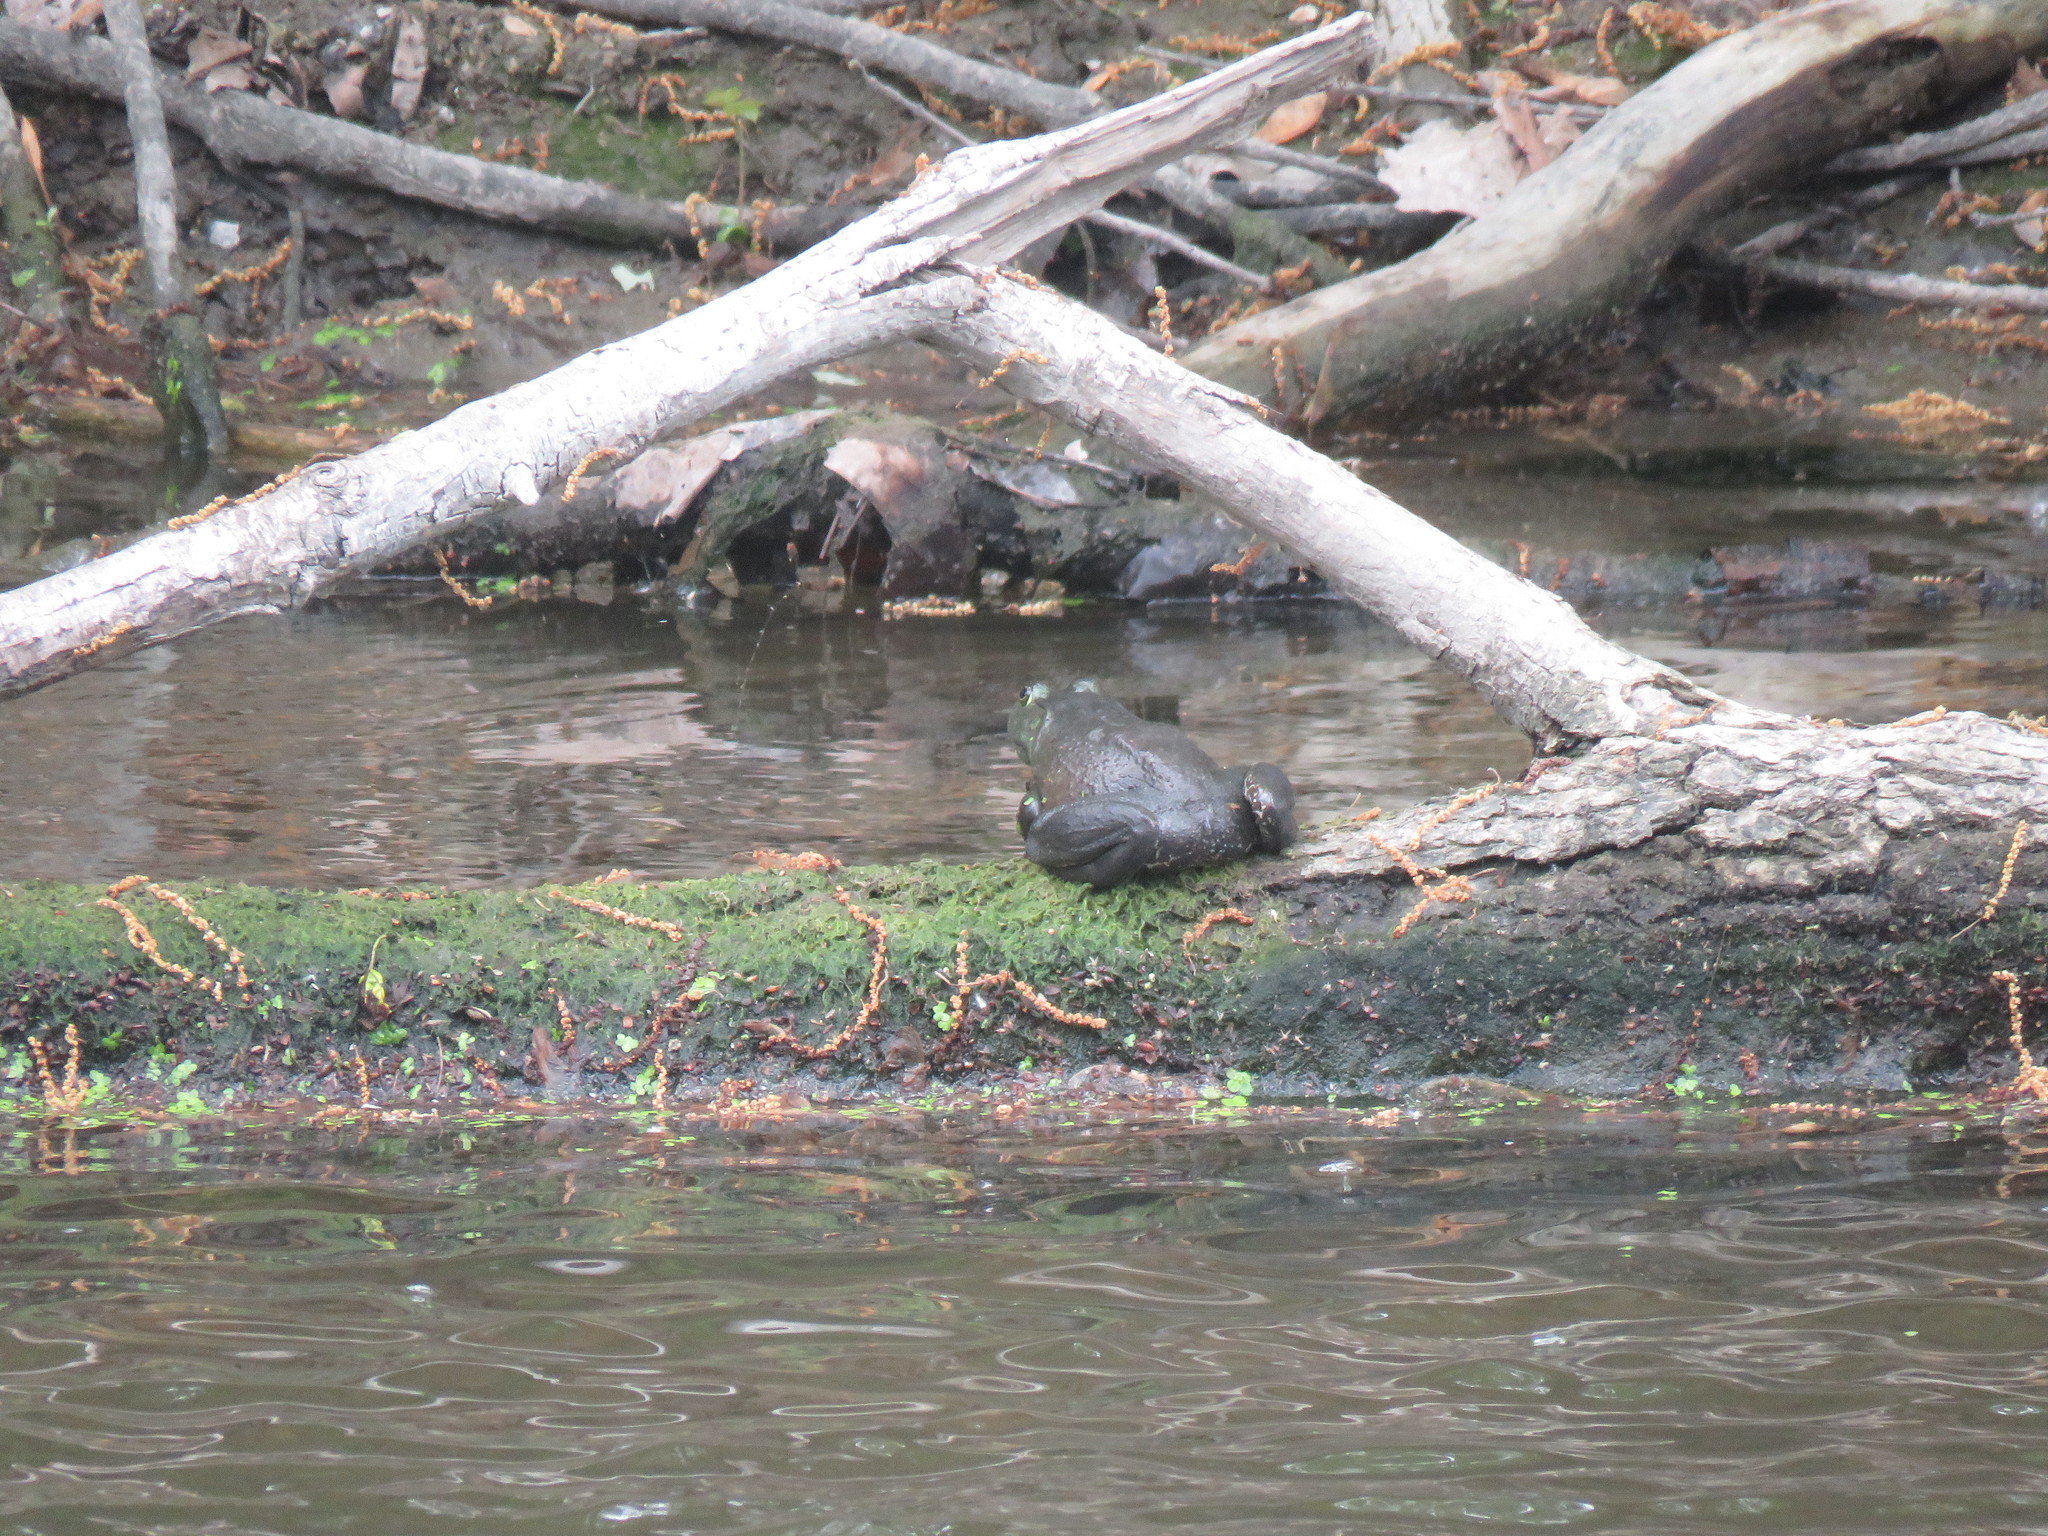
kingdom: Animalia
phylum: Chordata
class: Amphibia
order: Anura
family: Ranidae
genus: Lithobates
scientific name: Lithobates catesbeianus
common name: American bullfrog
